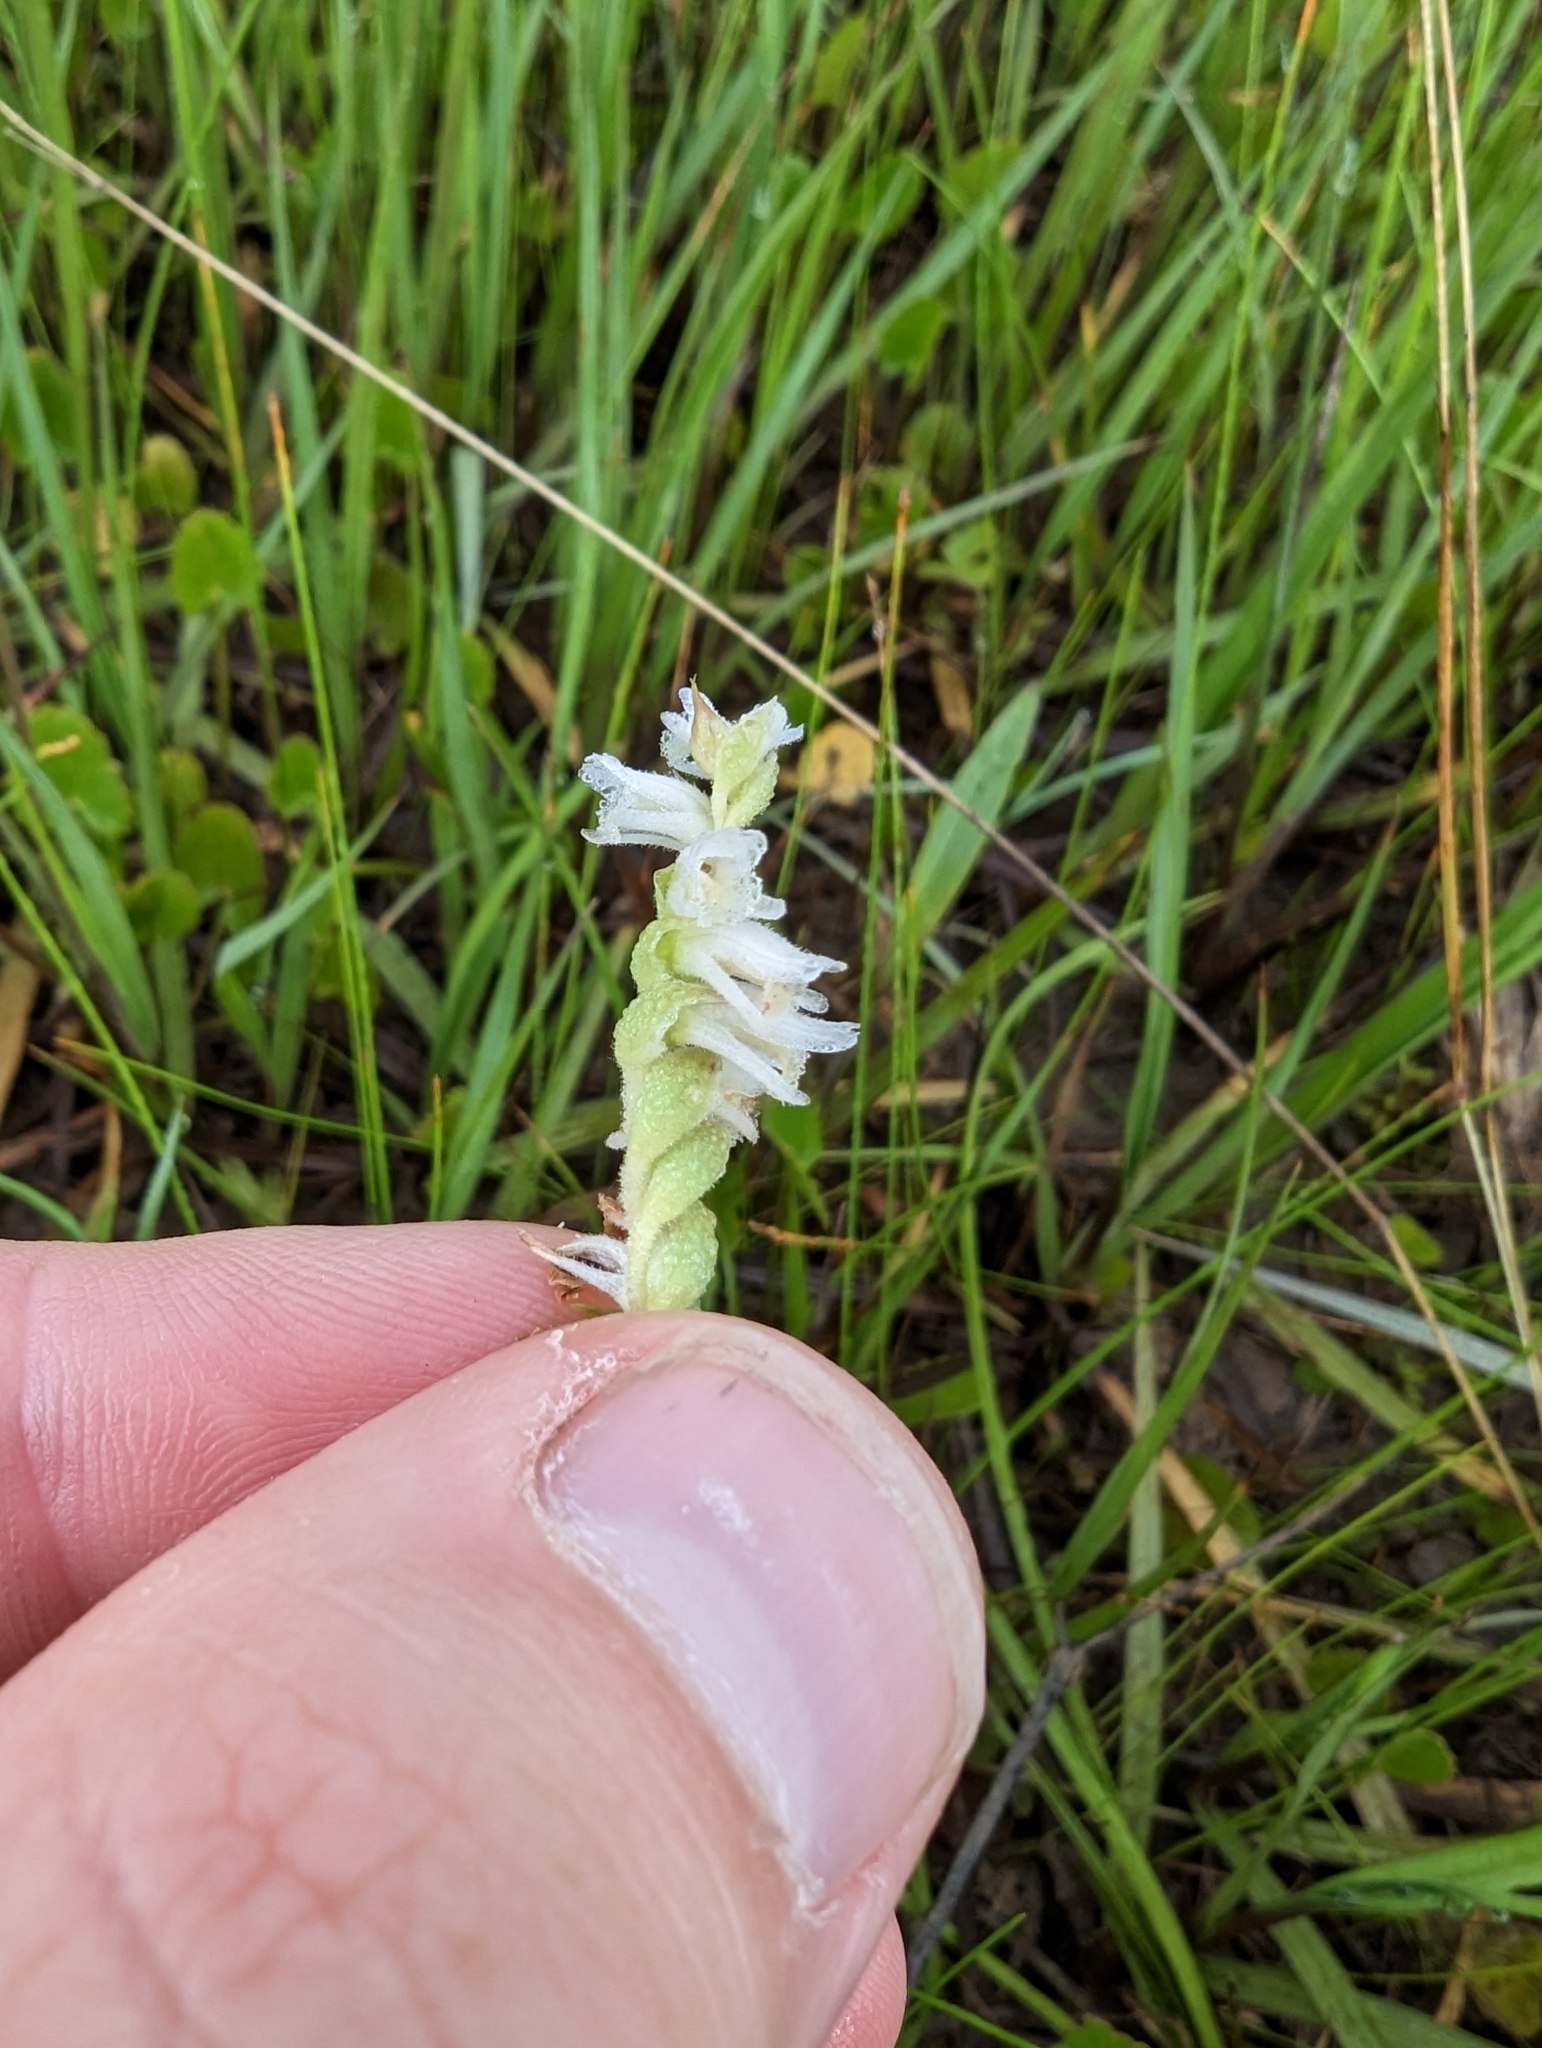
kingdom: Plantae
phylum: Tracheophyta
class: Liliopsida
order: Asparagales
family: Orchidaceae
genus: Spiranthes
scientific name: Spiranthes vernalis
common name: Spring ladies'-tresses
